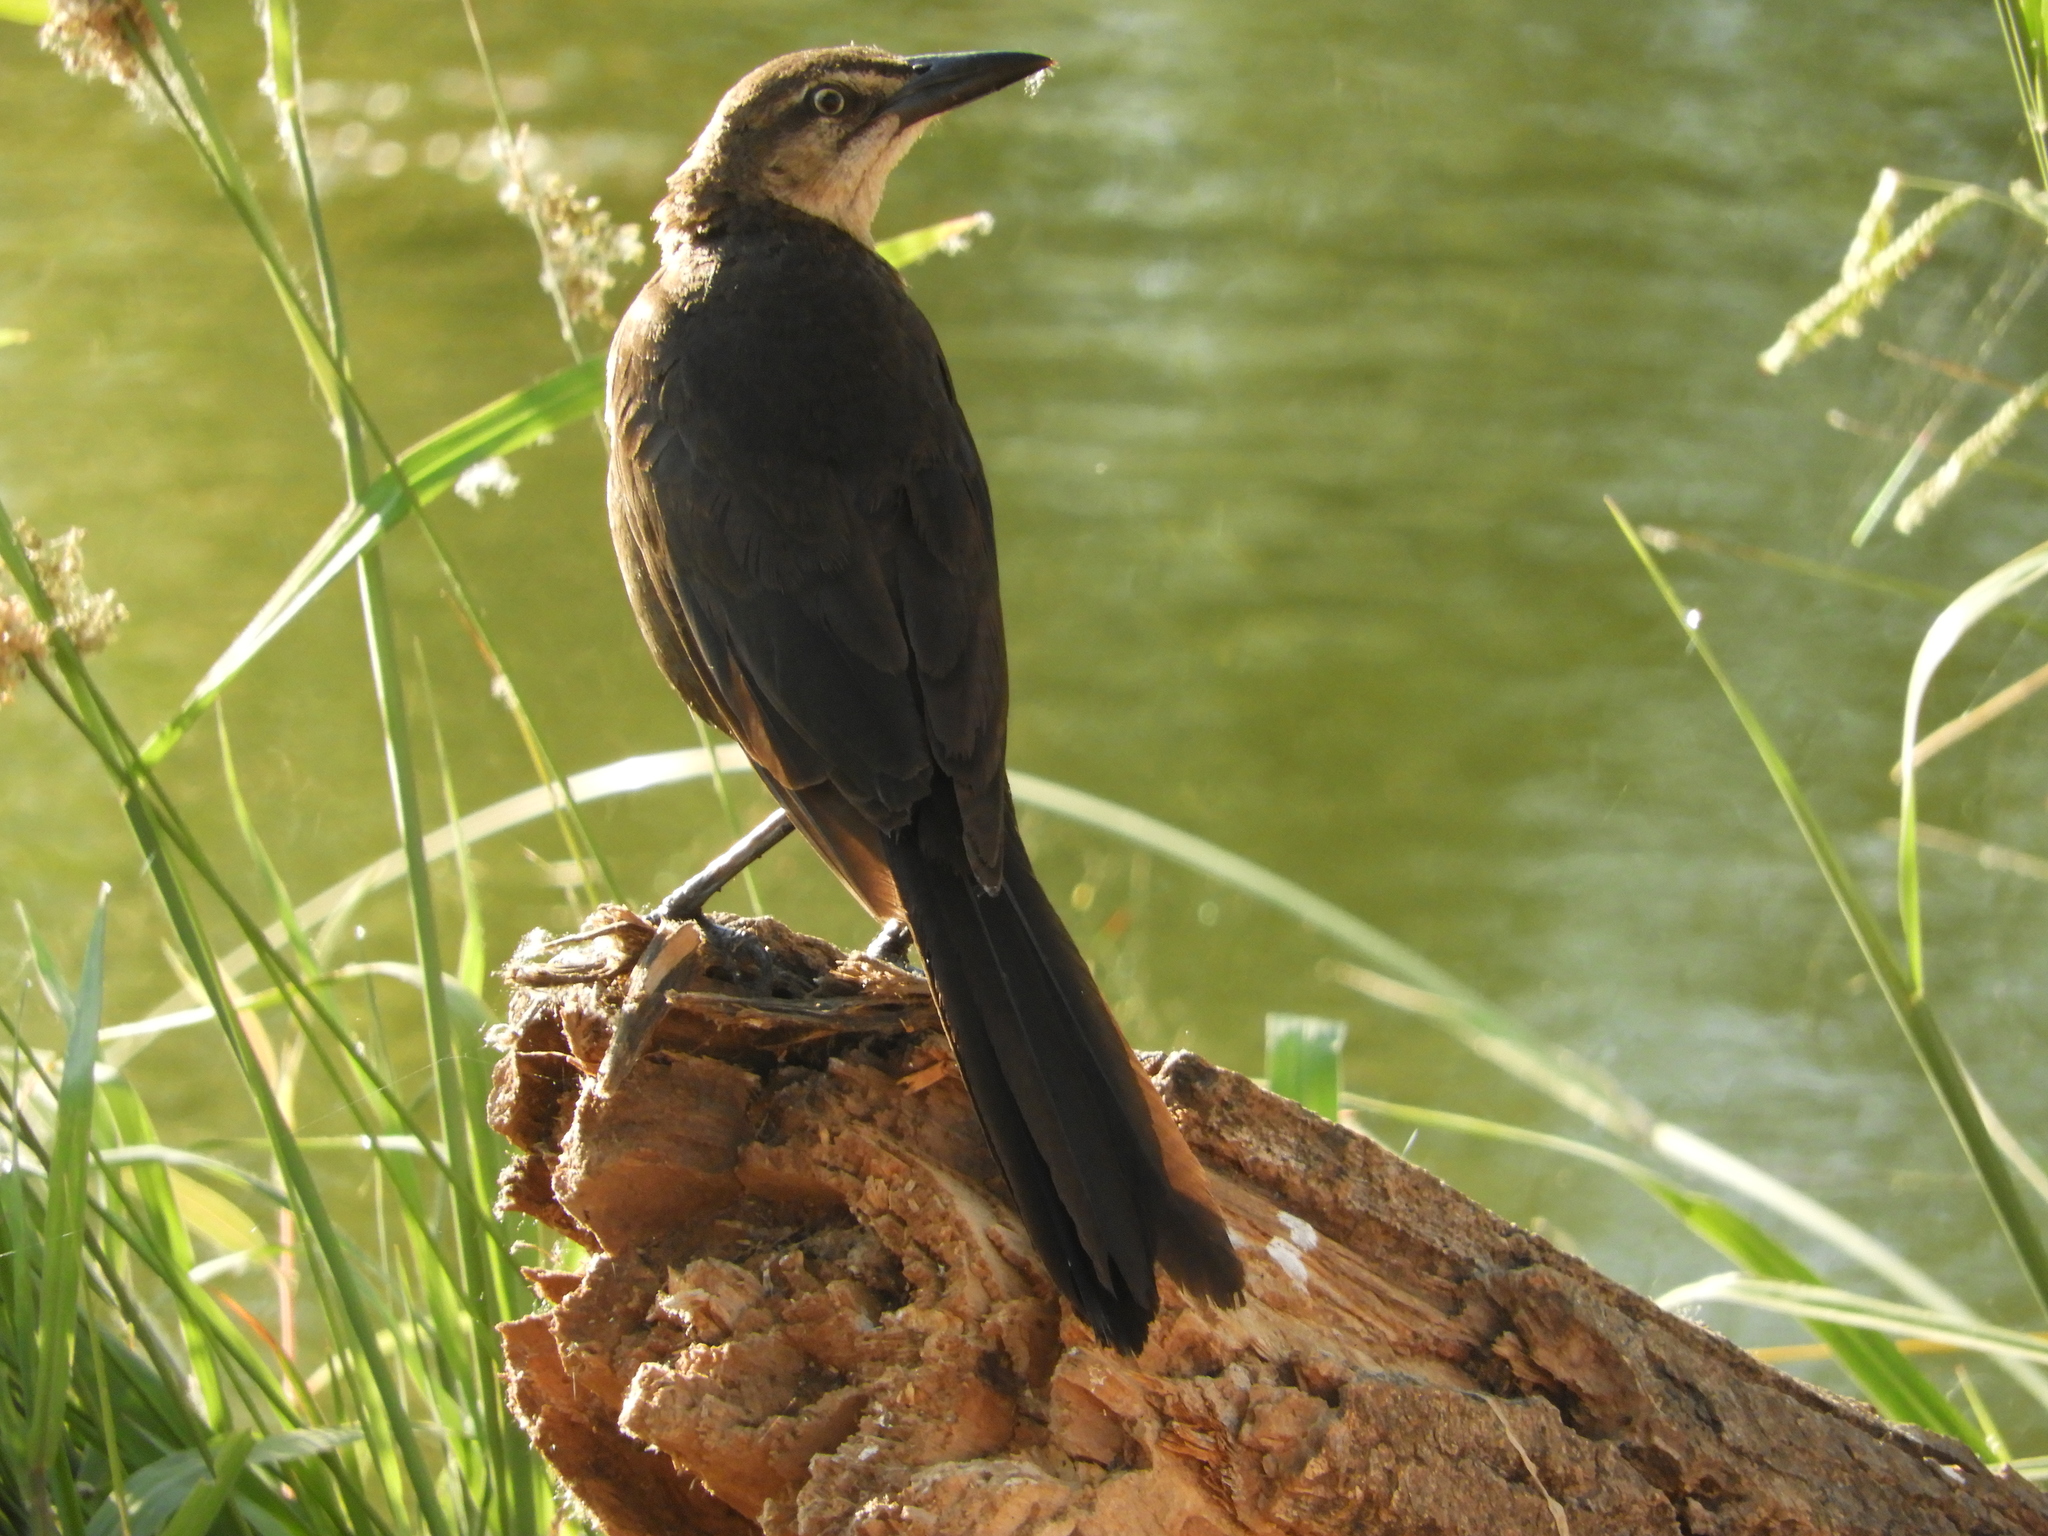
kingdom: Animalia
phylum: Chordata
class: Aves
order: Passeriformes
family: Icteridae
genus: Quiscalus
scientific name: Quiscalus mexicanus
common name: Great-tailed grackle
